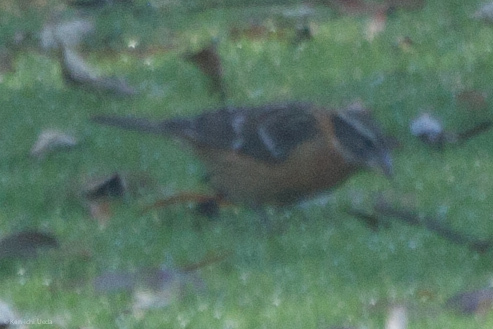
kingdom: Animalia
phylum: Chordata
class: Aves
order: Passeriformes
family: Cardinalidae
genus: Pheucticus
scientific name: Pheucticus melanocephalus
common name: Black-headed grosbeak
